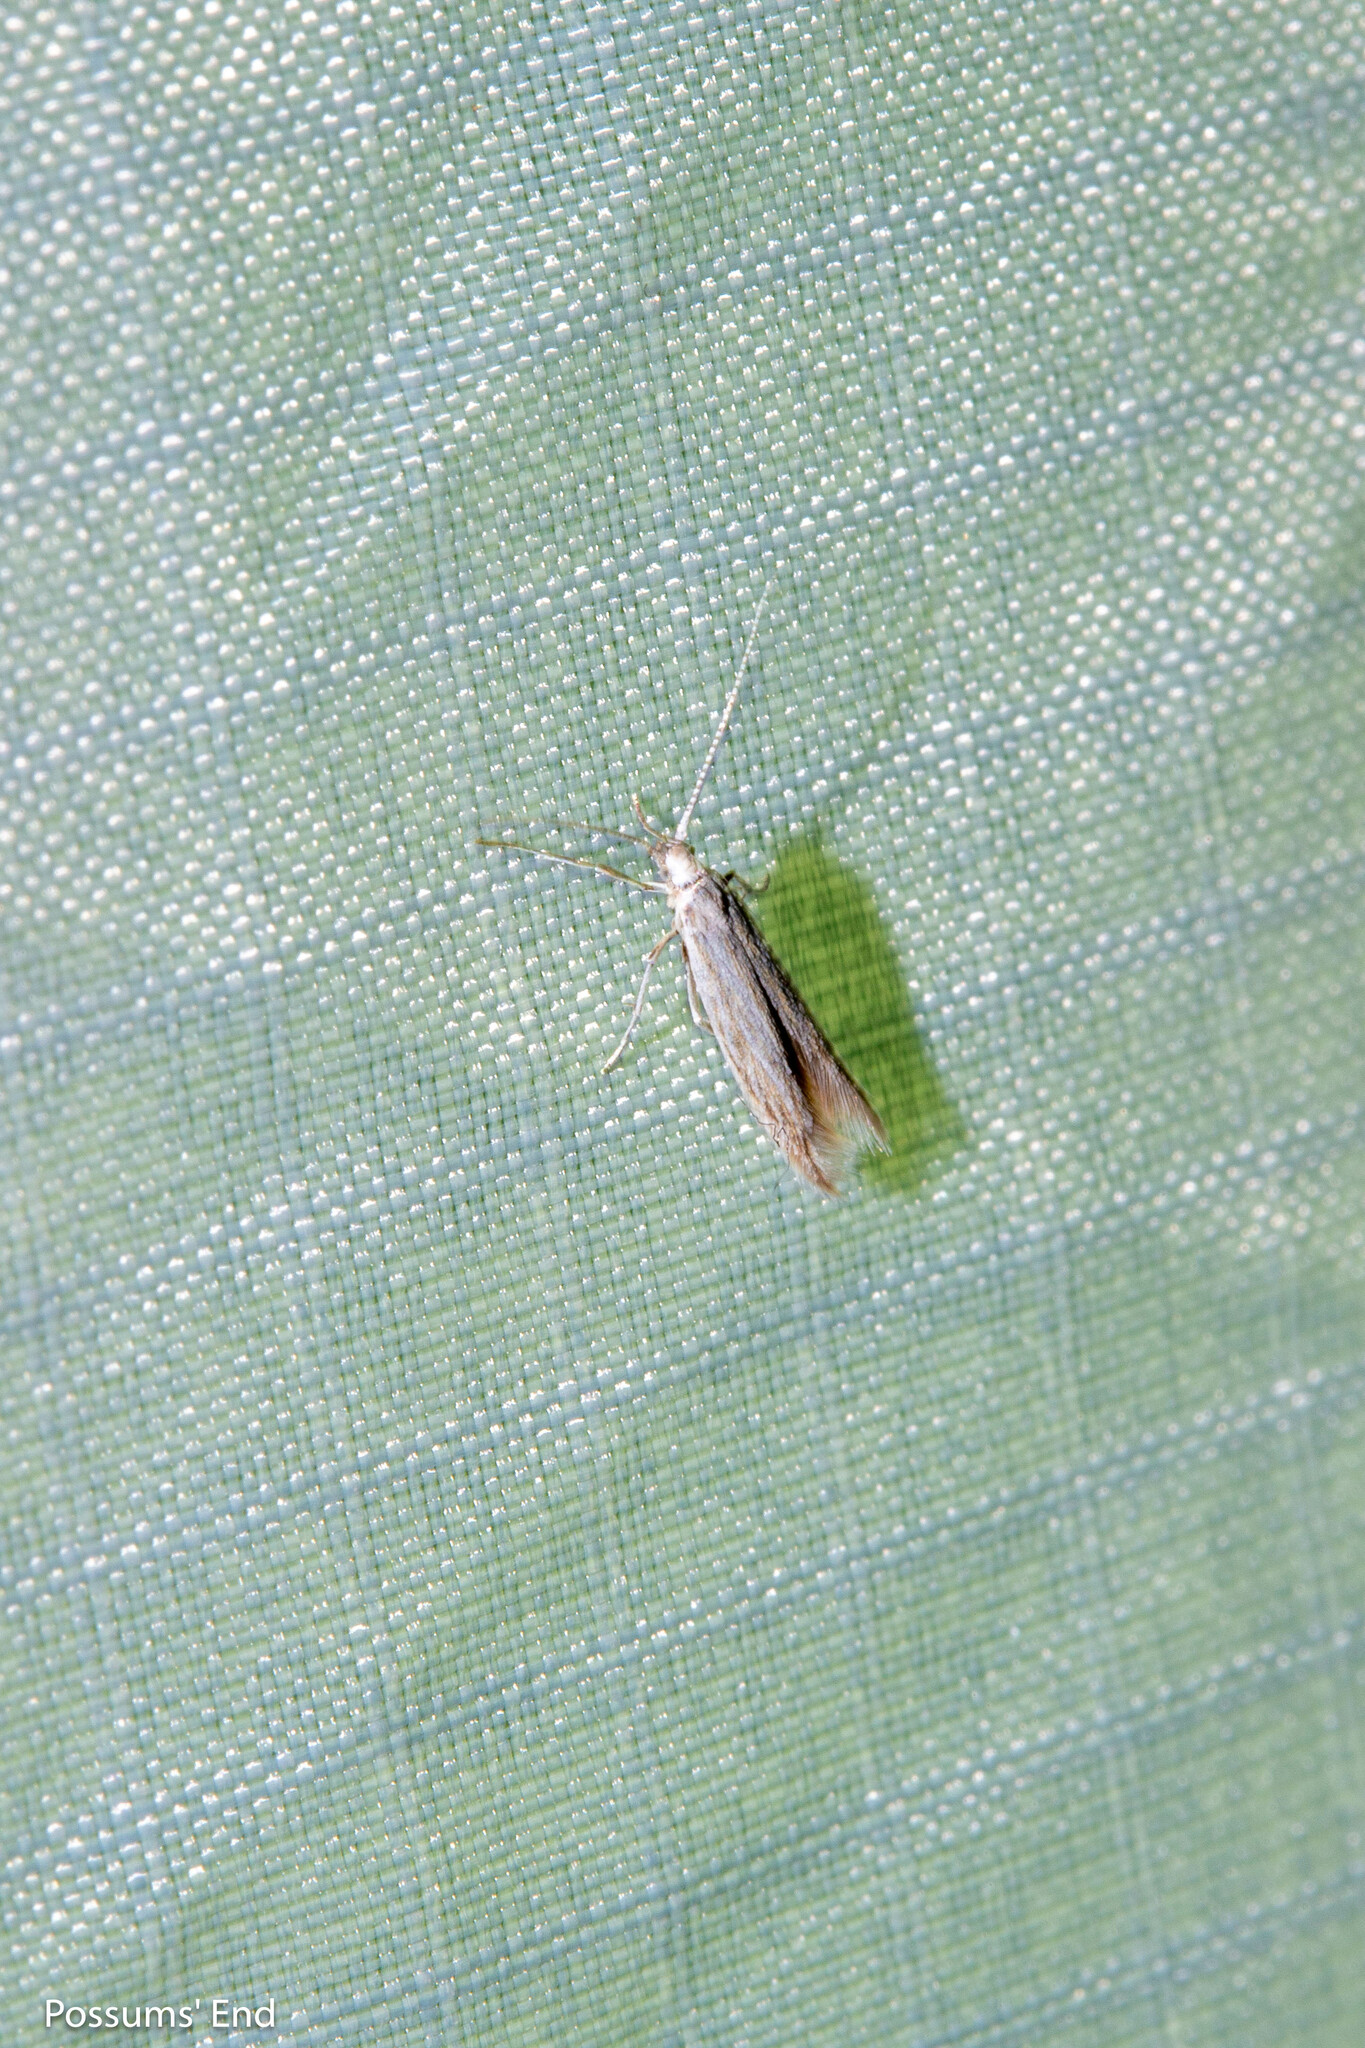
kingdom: Animalia
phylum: Arthropoda
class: Insecta
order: Lepidoptera
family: Coleophoridae
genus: Coleophora
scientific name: Coleophora striatipennella
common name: Hedge case-bearer
